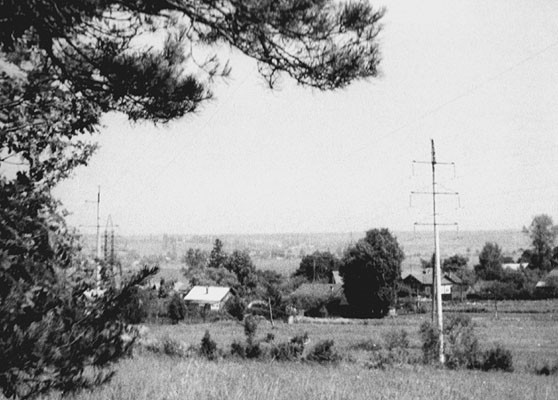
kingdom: Plantae
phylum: Tracheophyta
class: Pinopsida
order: Pinales
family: Pinaceae
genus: Pinus
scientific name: Pinus sylvestris
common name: Scots pine
